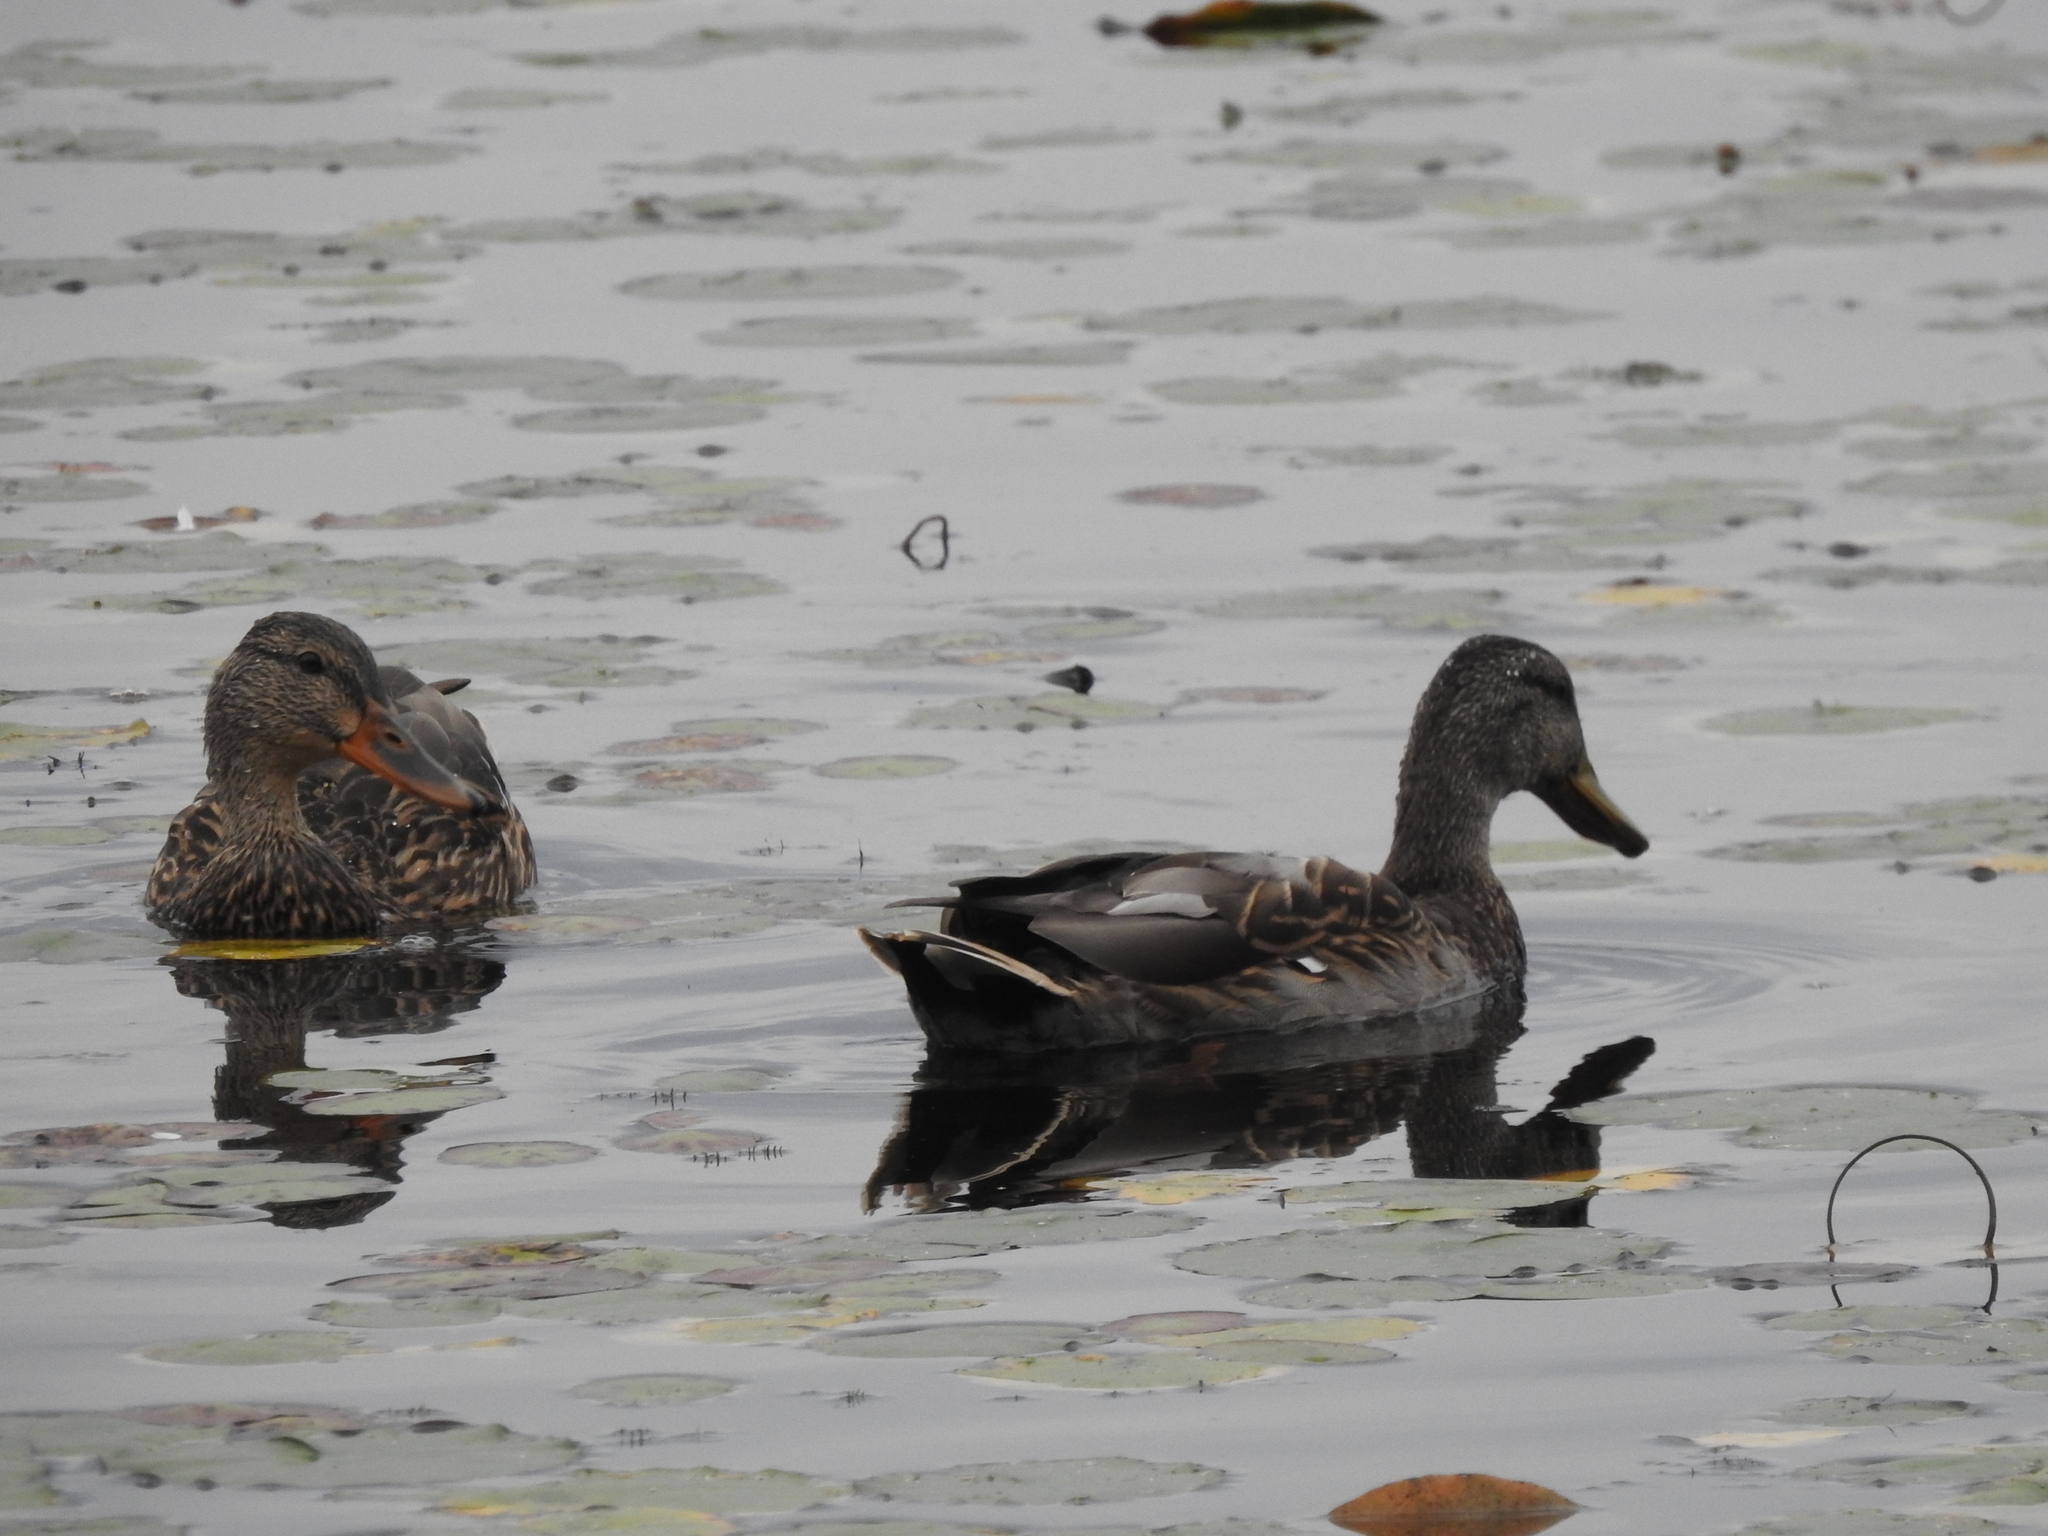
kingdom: Animalia
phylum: Chordata
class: Aves
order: Anseriformes
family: Anatidae
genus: Anas
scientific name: Anas platyrhynchos
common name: Mallard
